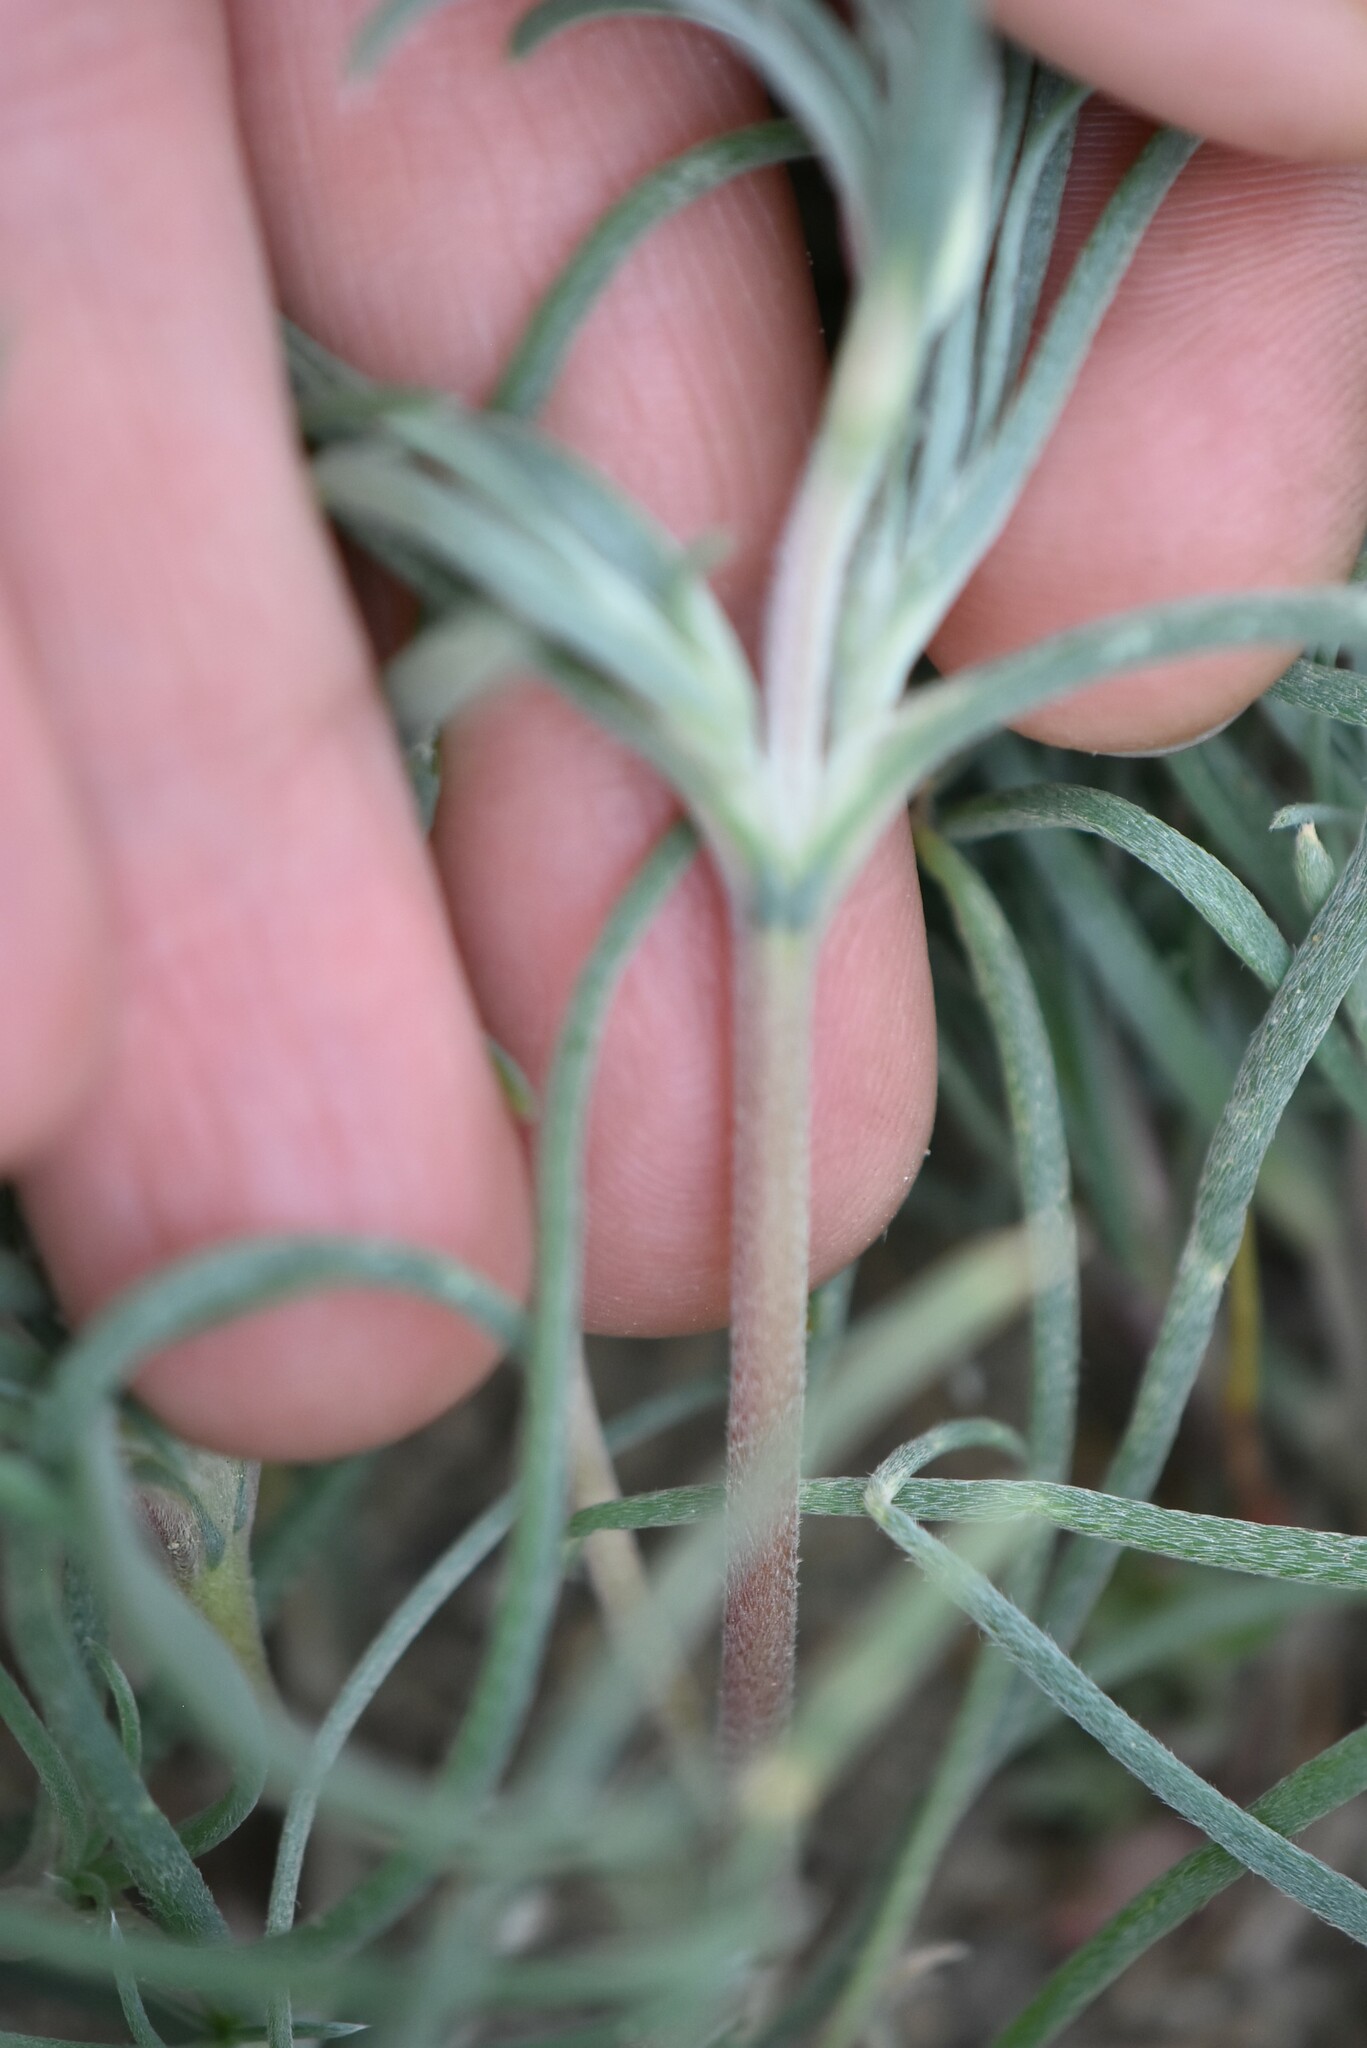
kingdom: Plantae
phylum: Tracheophyta
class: Magnoliopsida
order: Caryophyllales
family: Amaranthaceae
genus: Ceratocarpus
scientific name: Ceratocarpus arenarius
